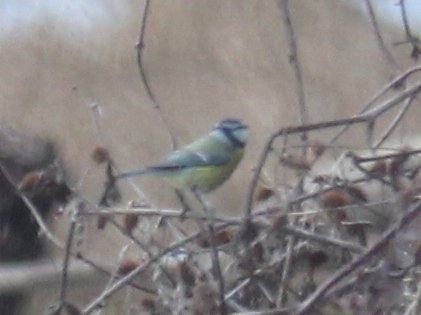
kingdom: Animalia
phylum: Chordata
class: Aves
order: Passeriformes
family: Paridae
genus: Cyanistes
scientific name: Cyanistes caeruleus
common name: Eurasian blue tit
